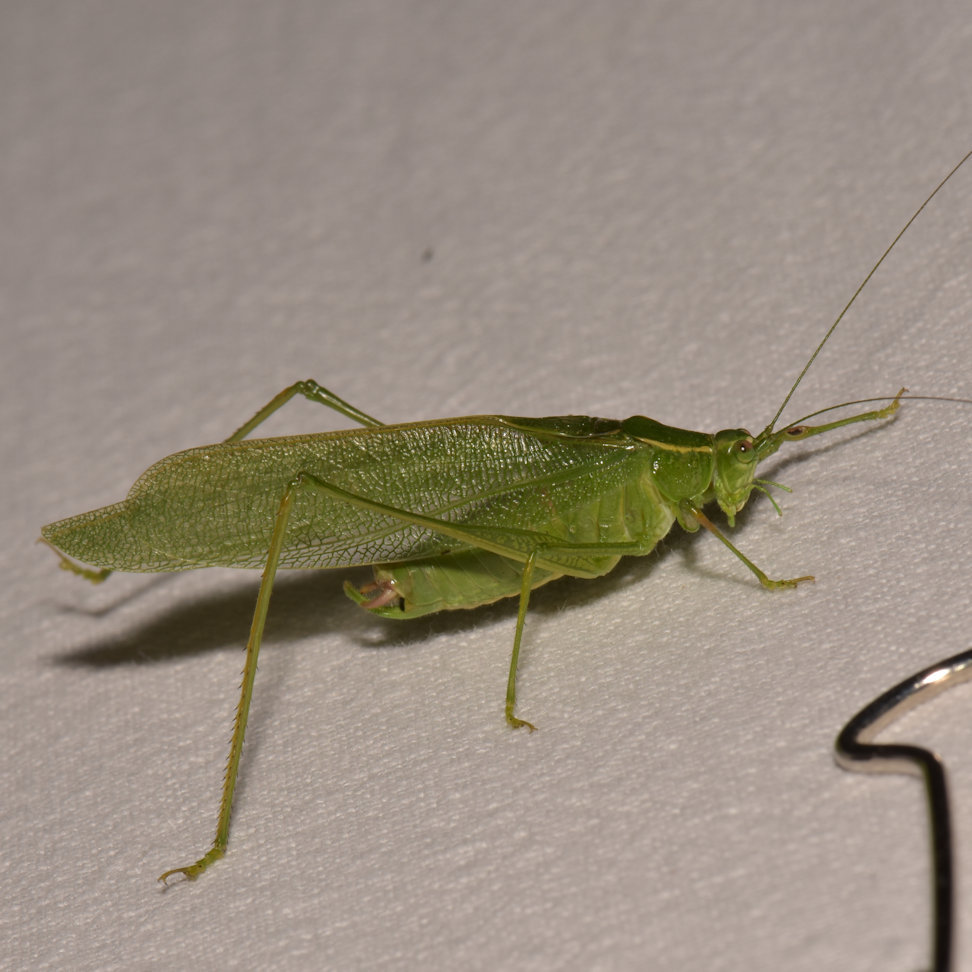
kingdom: Animalia
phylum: Arthropoda
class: Insecta
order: Orthoptera
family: Tettigoniidae
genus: Scudderia
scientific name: Scudderia septentrionalis
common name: Northern bush-katydid
